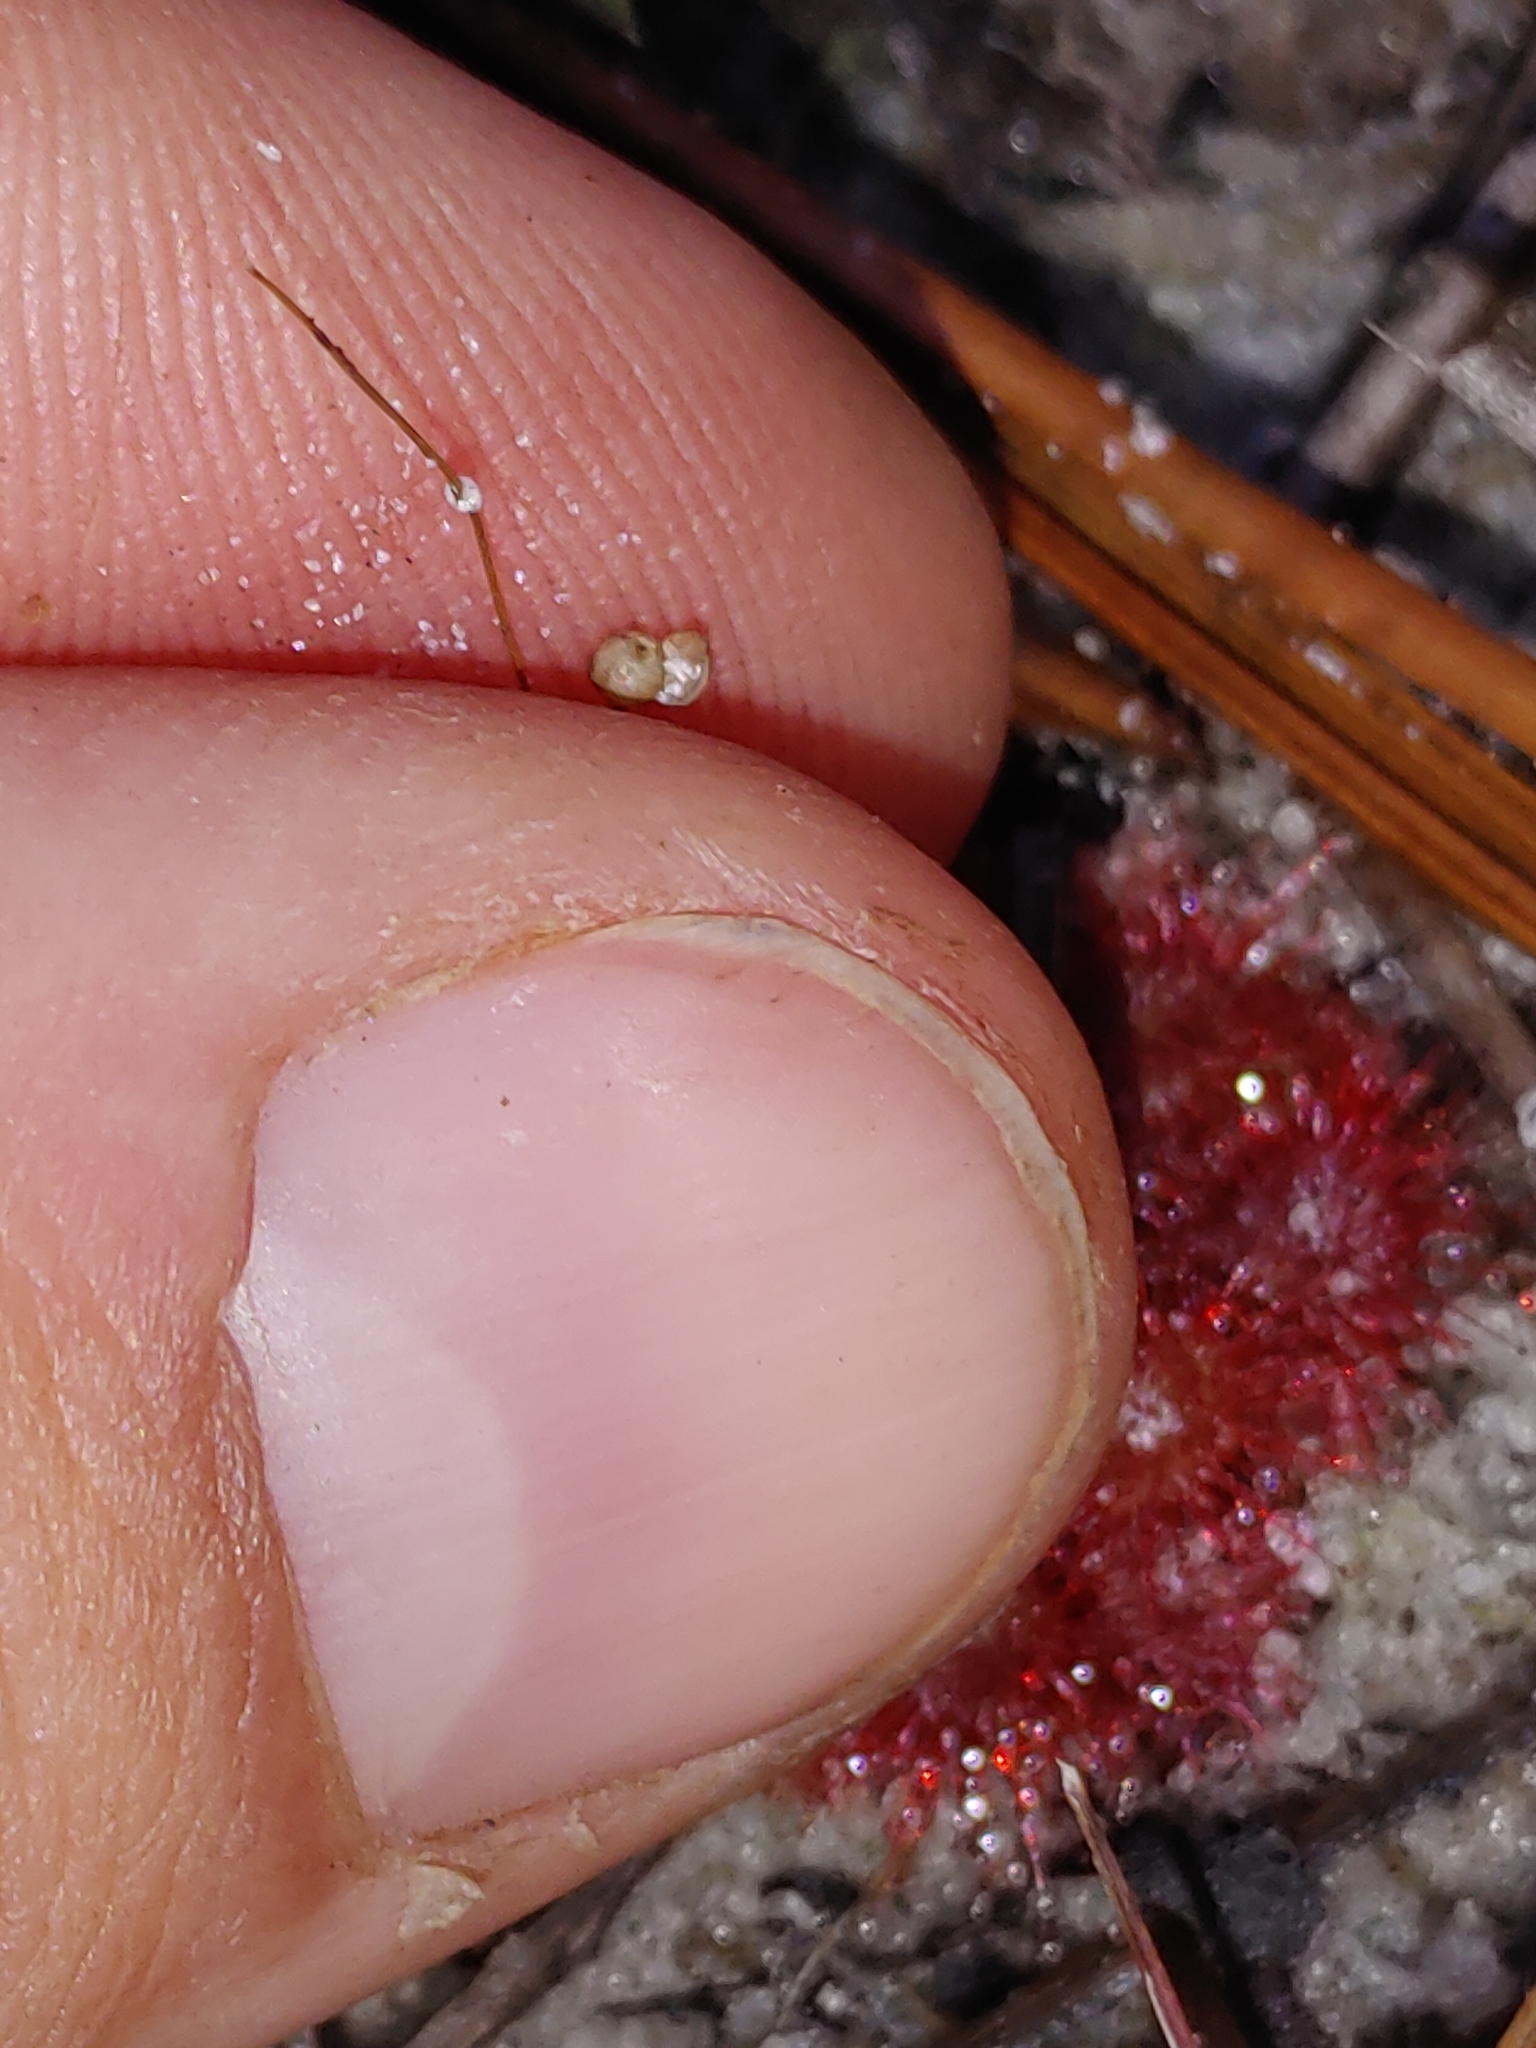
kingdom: Plantae
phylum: Tracheophyta
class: Magnoliopsida
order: Caryophyllales
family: Droseraceae
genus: Drosera
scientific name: Drosera capillaris
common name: Pink sundew
